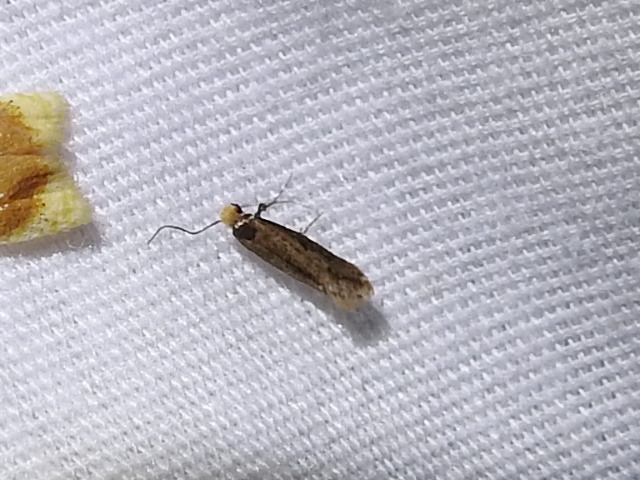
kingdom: Animalia
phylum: Arthropoda
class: Insecta
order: Lepidoptera
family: Meessiidae
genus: Homostinea
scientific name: Homostinea curviliniella
